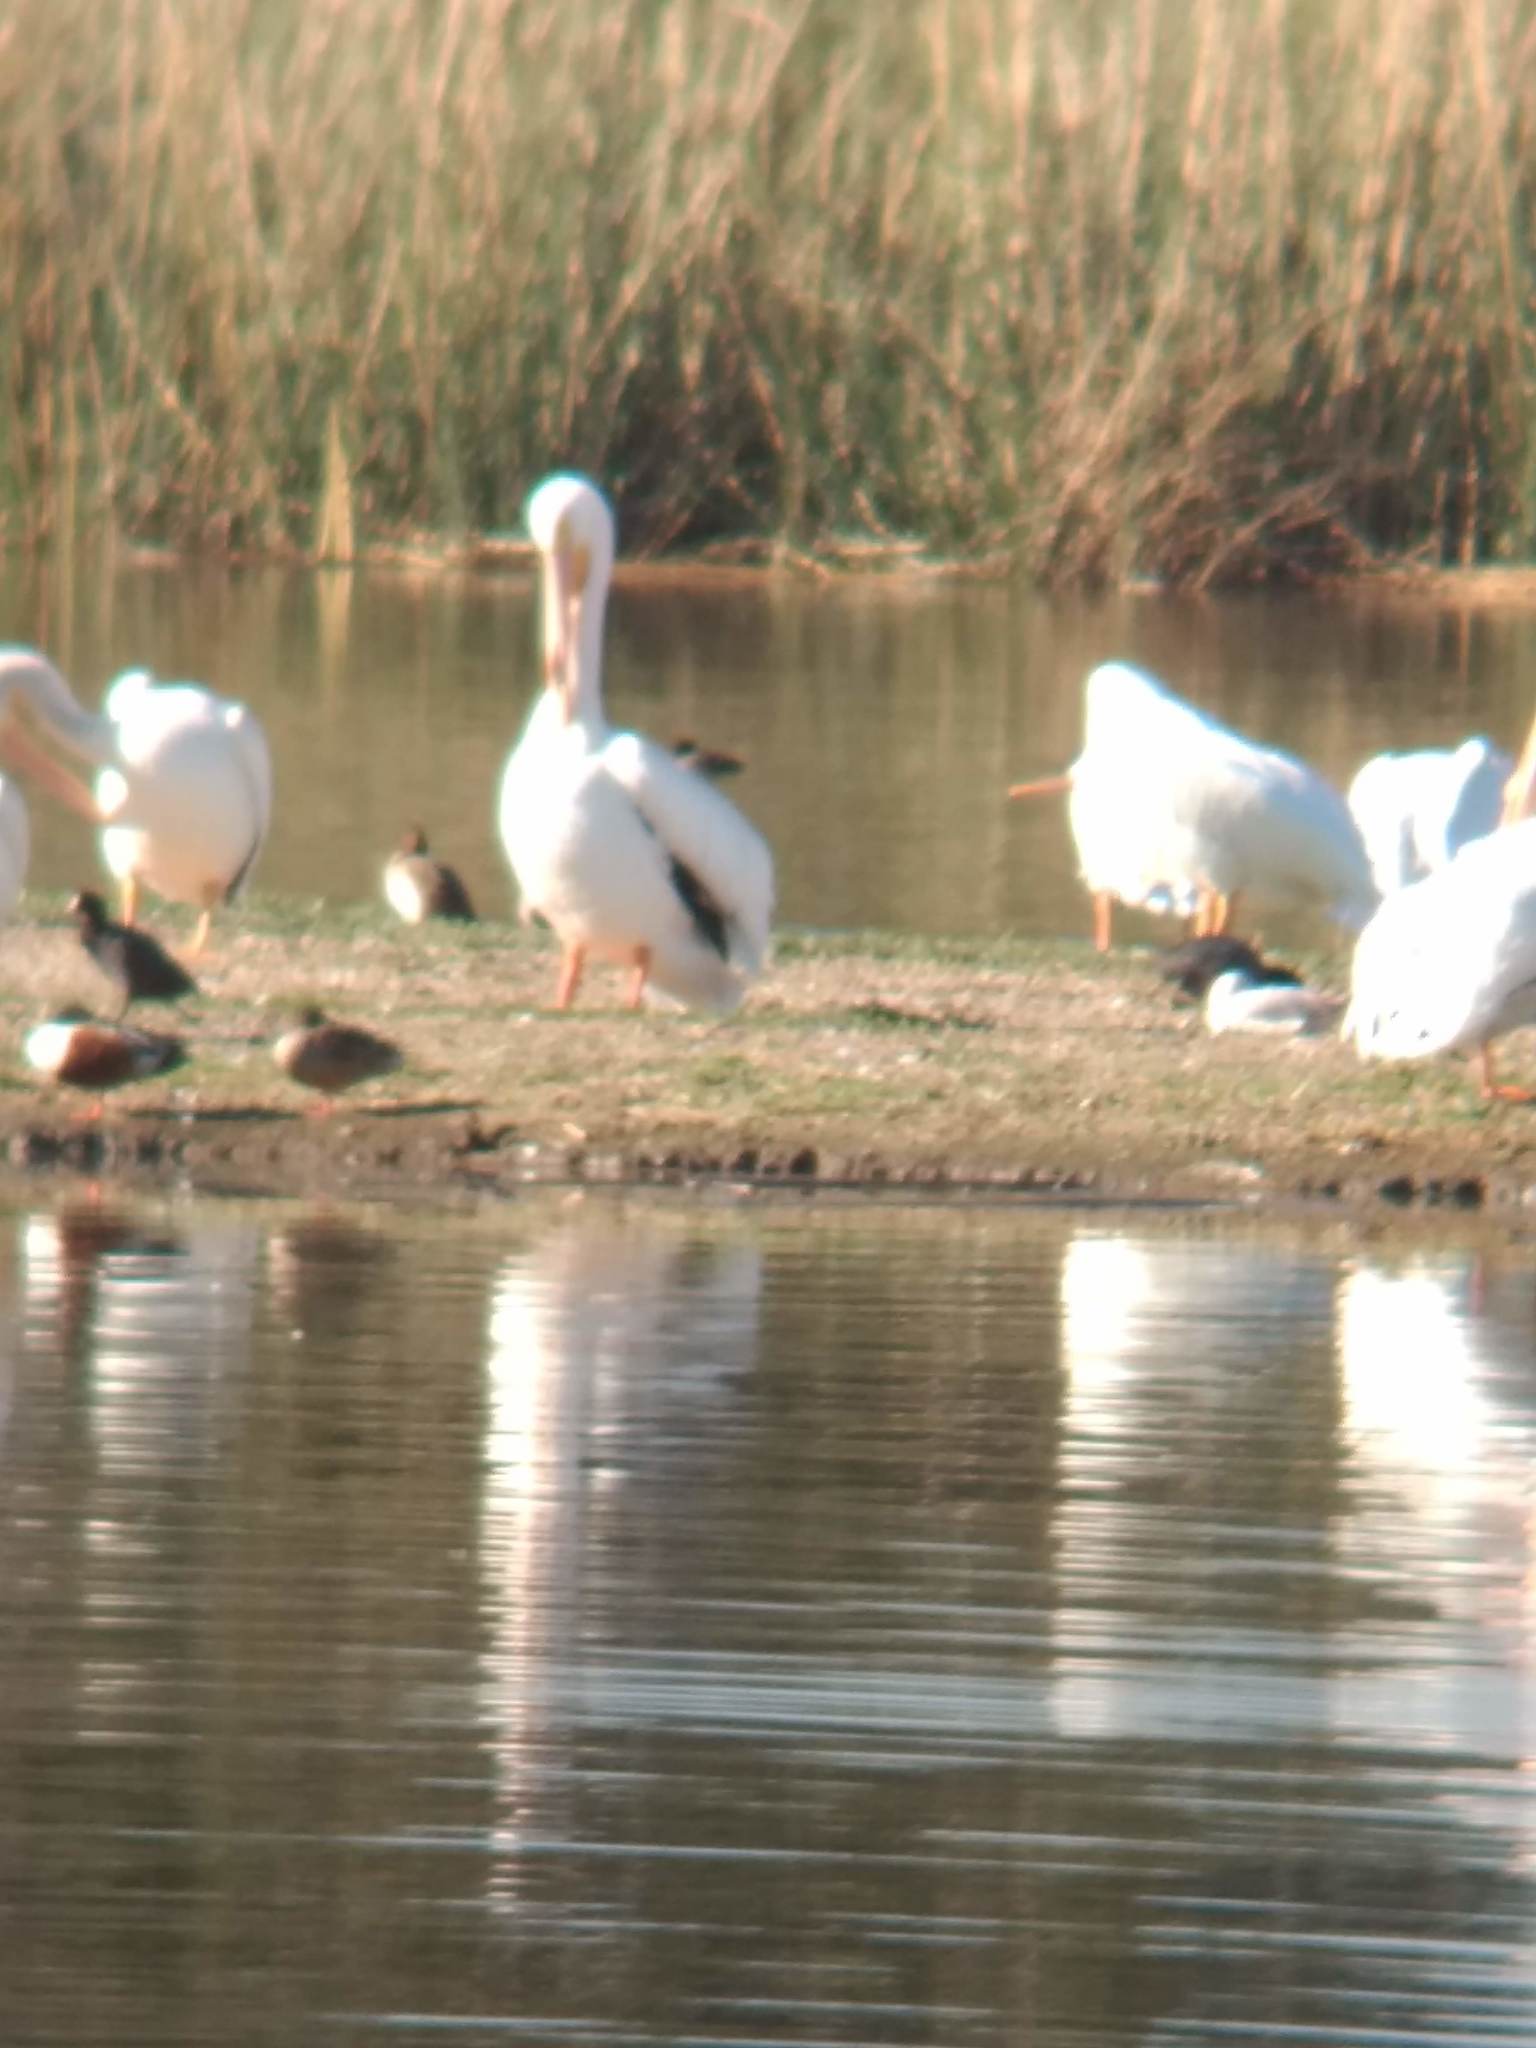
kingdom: Animalia
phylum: Chordata
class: Aves
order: Pelecaniformes
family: Pelecanidae
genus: Pelecanus
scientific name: Pelecanus erythrorhynchos
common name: American white pelican
